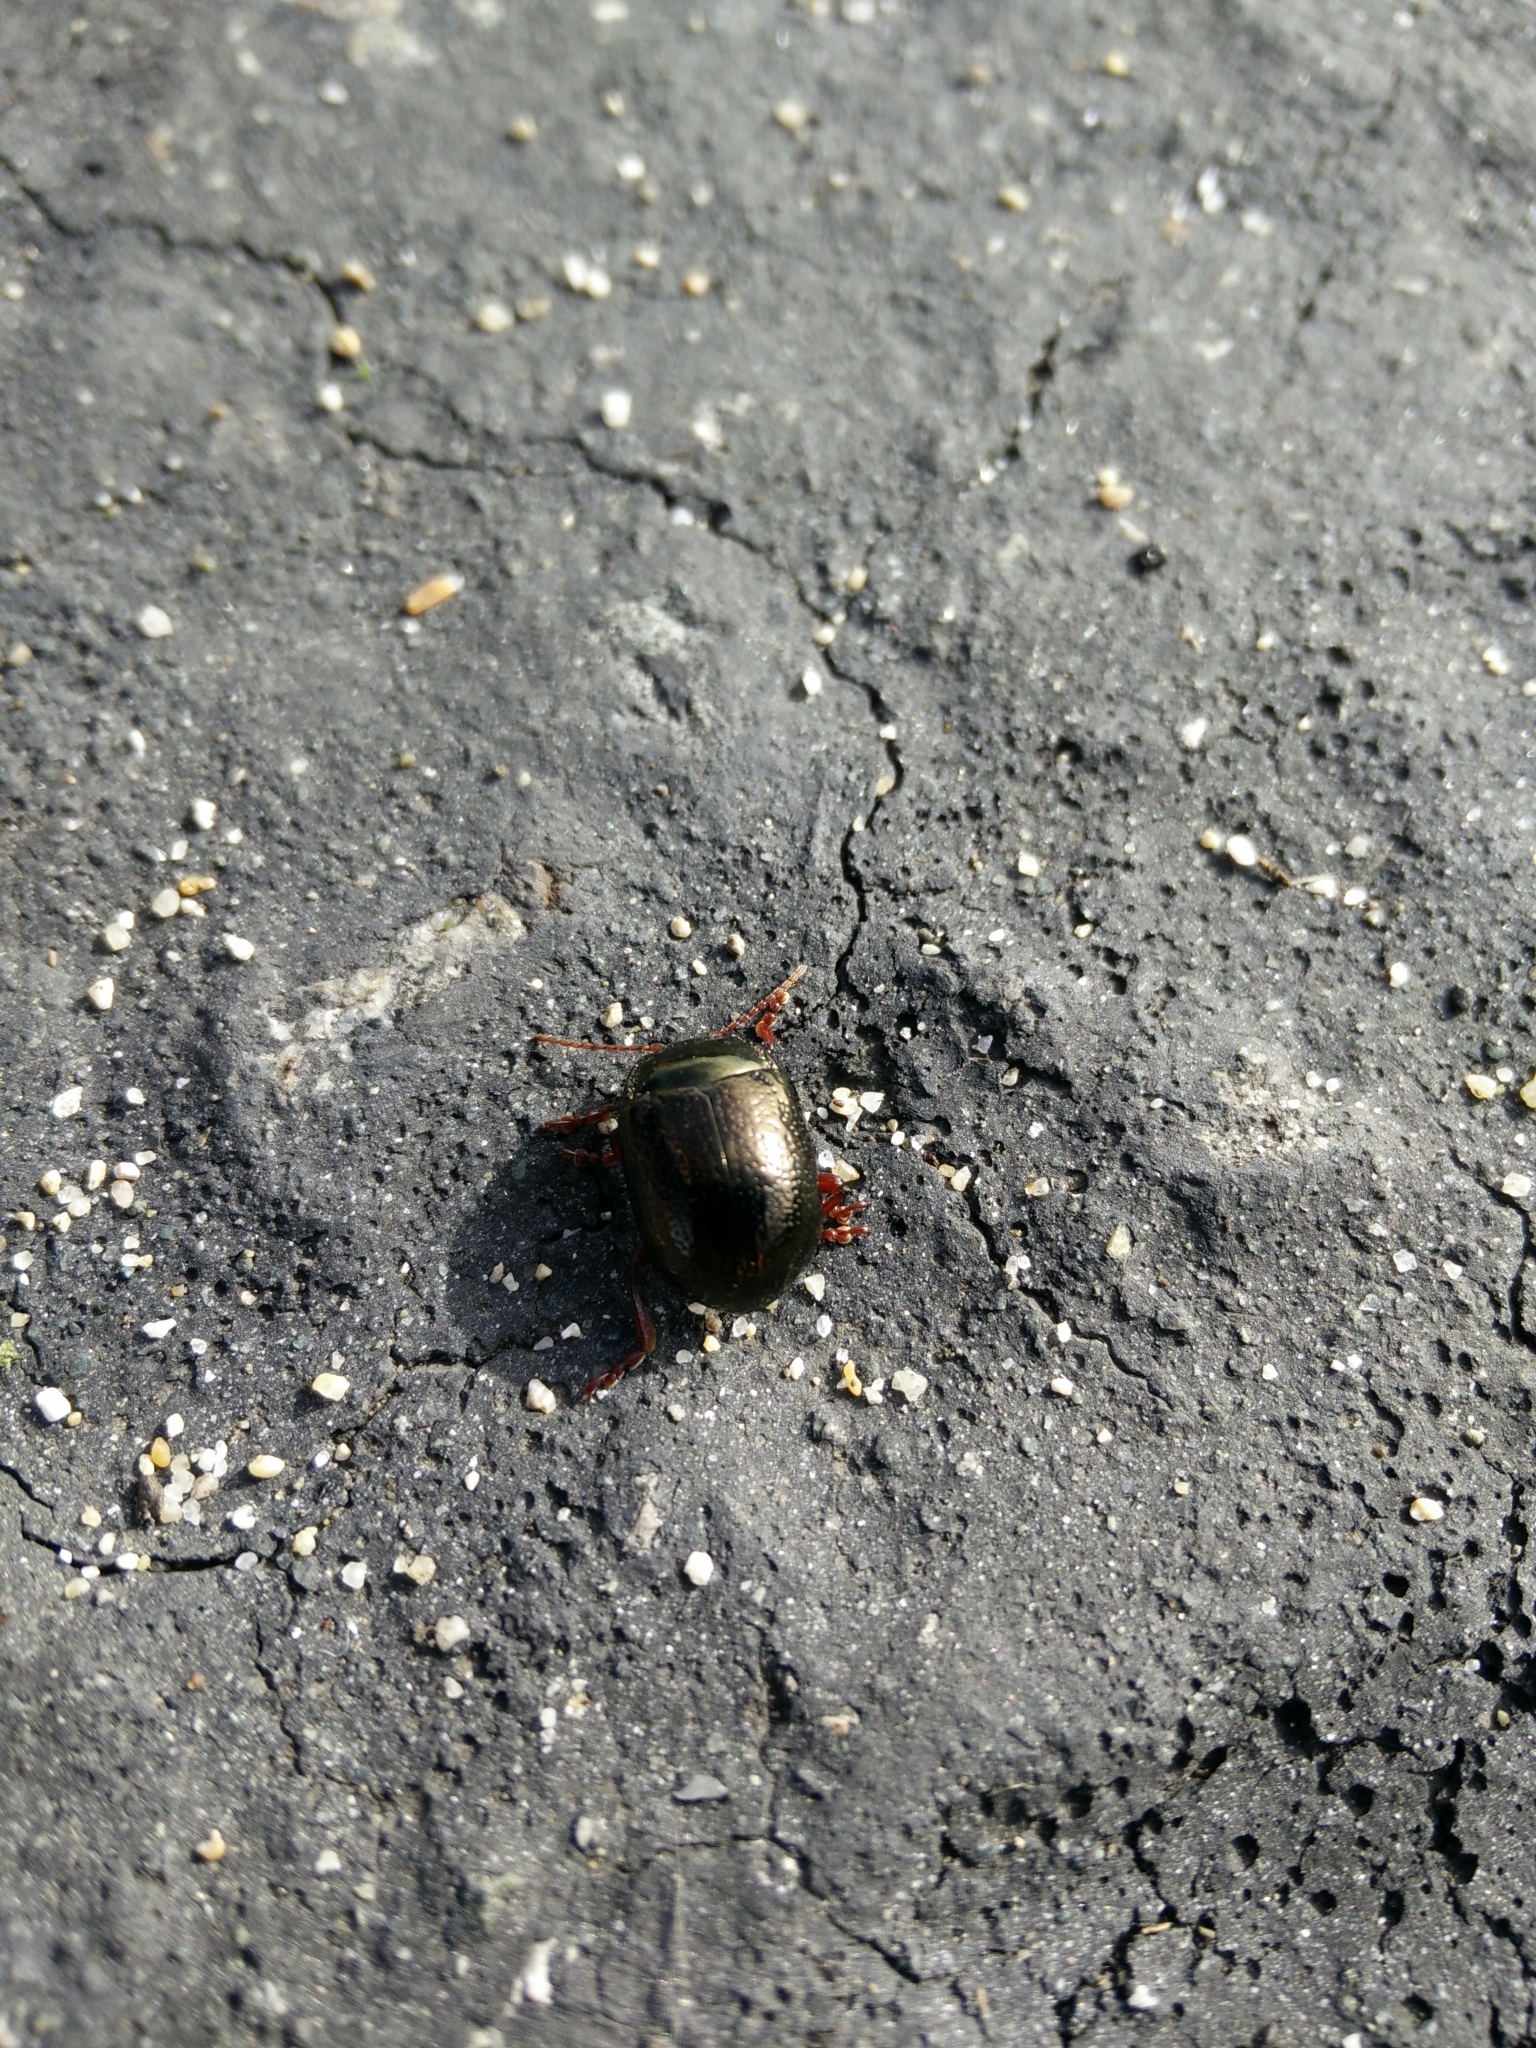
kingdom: Animalia
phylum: Arthropoda
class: Insecta
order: Coleoptera
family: Chrysomelidae
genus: Chrysolina
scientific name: Chrysolina bankii
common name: Leaf beetle
